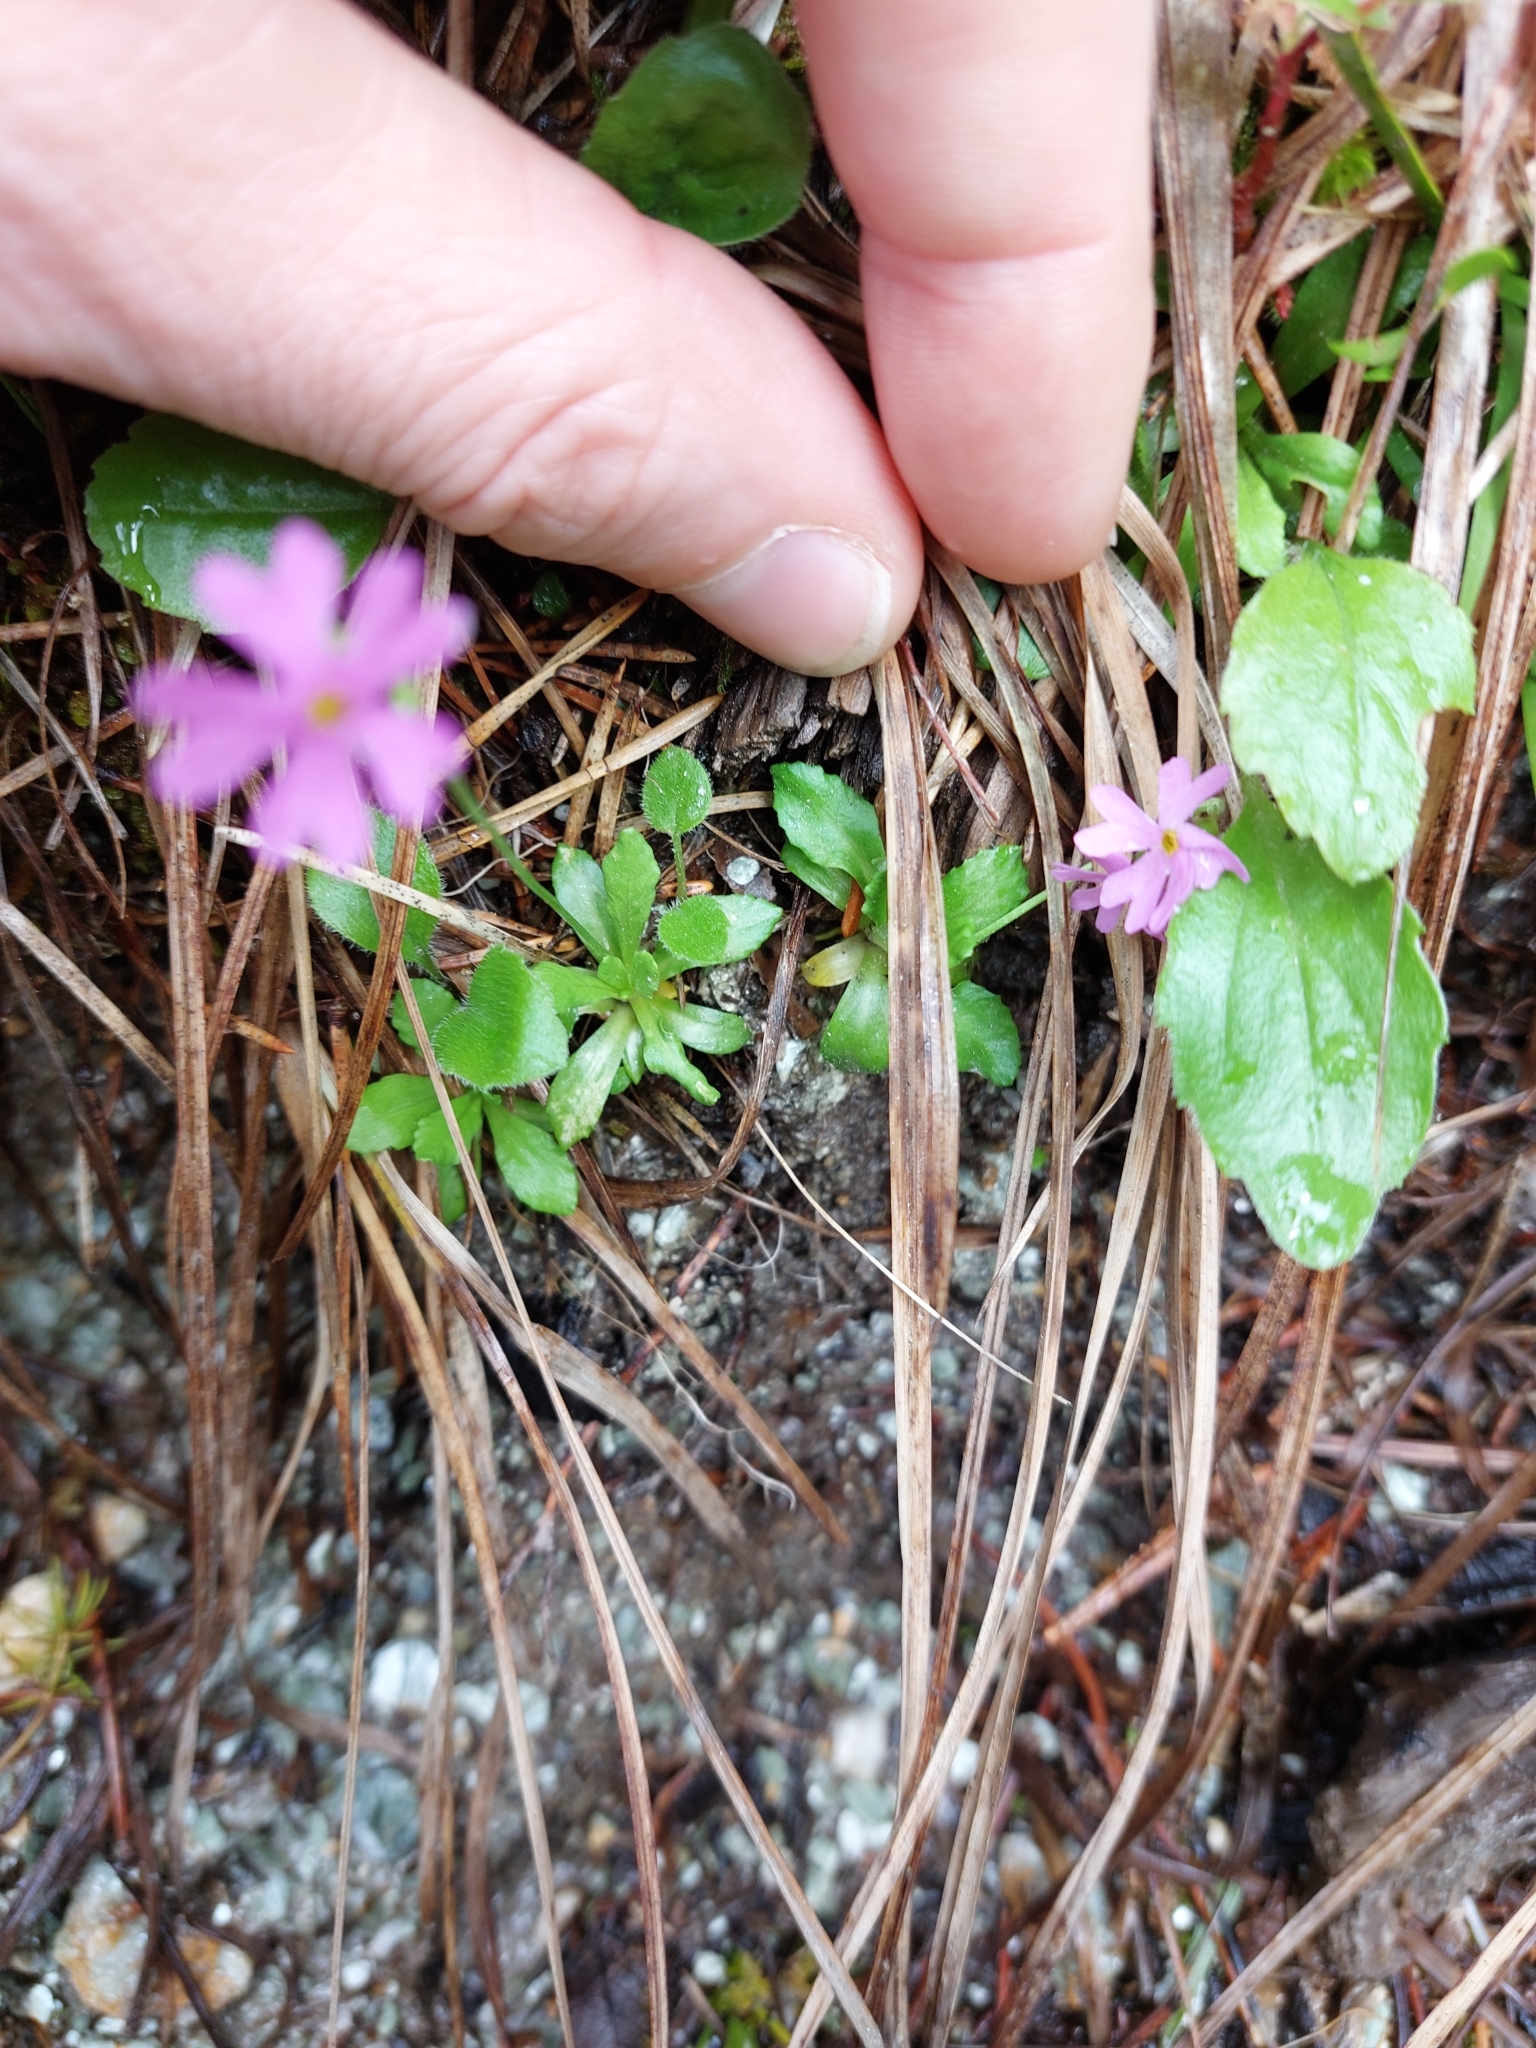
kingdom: Plantae
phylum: Tracheophyta
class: Magnoliopsida
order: Ericales
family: Primulaceae
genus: Primula
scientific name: Primula farinosa
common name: Bird's-eye primrose
